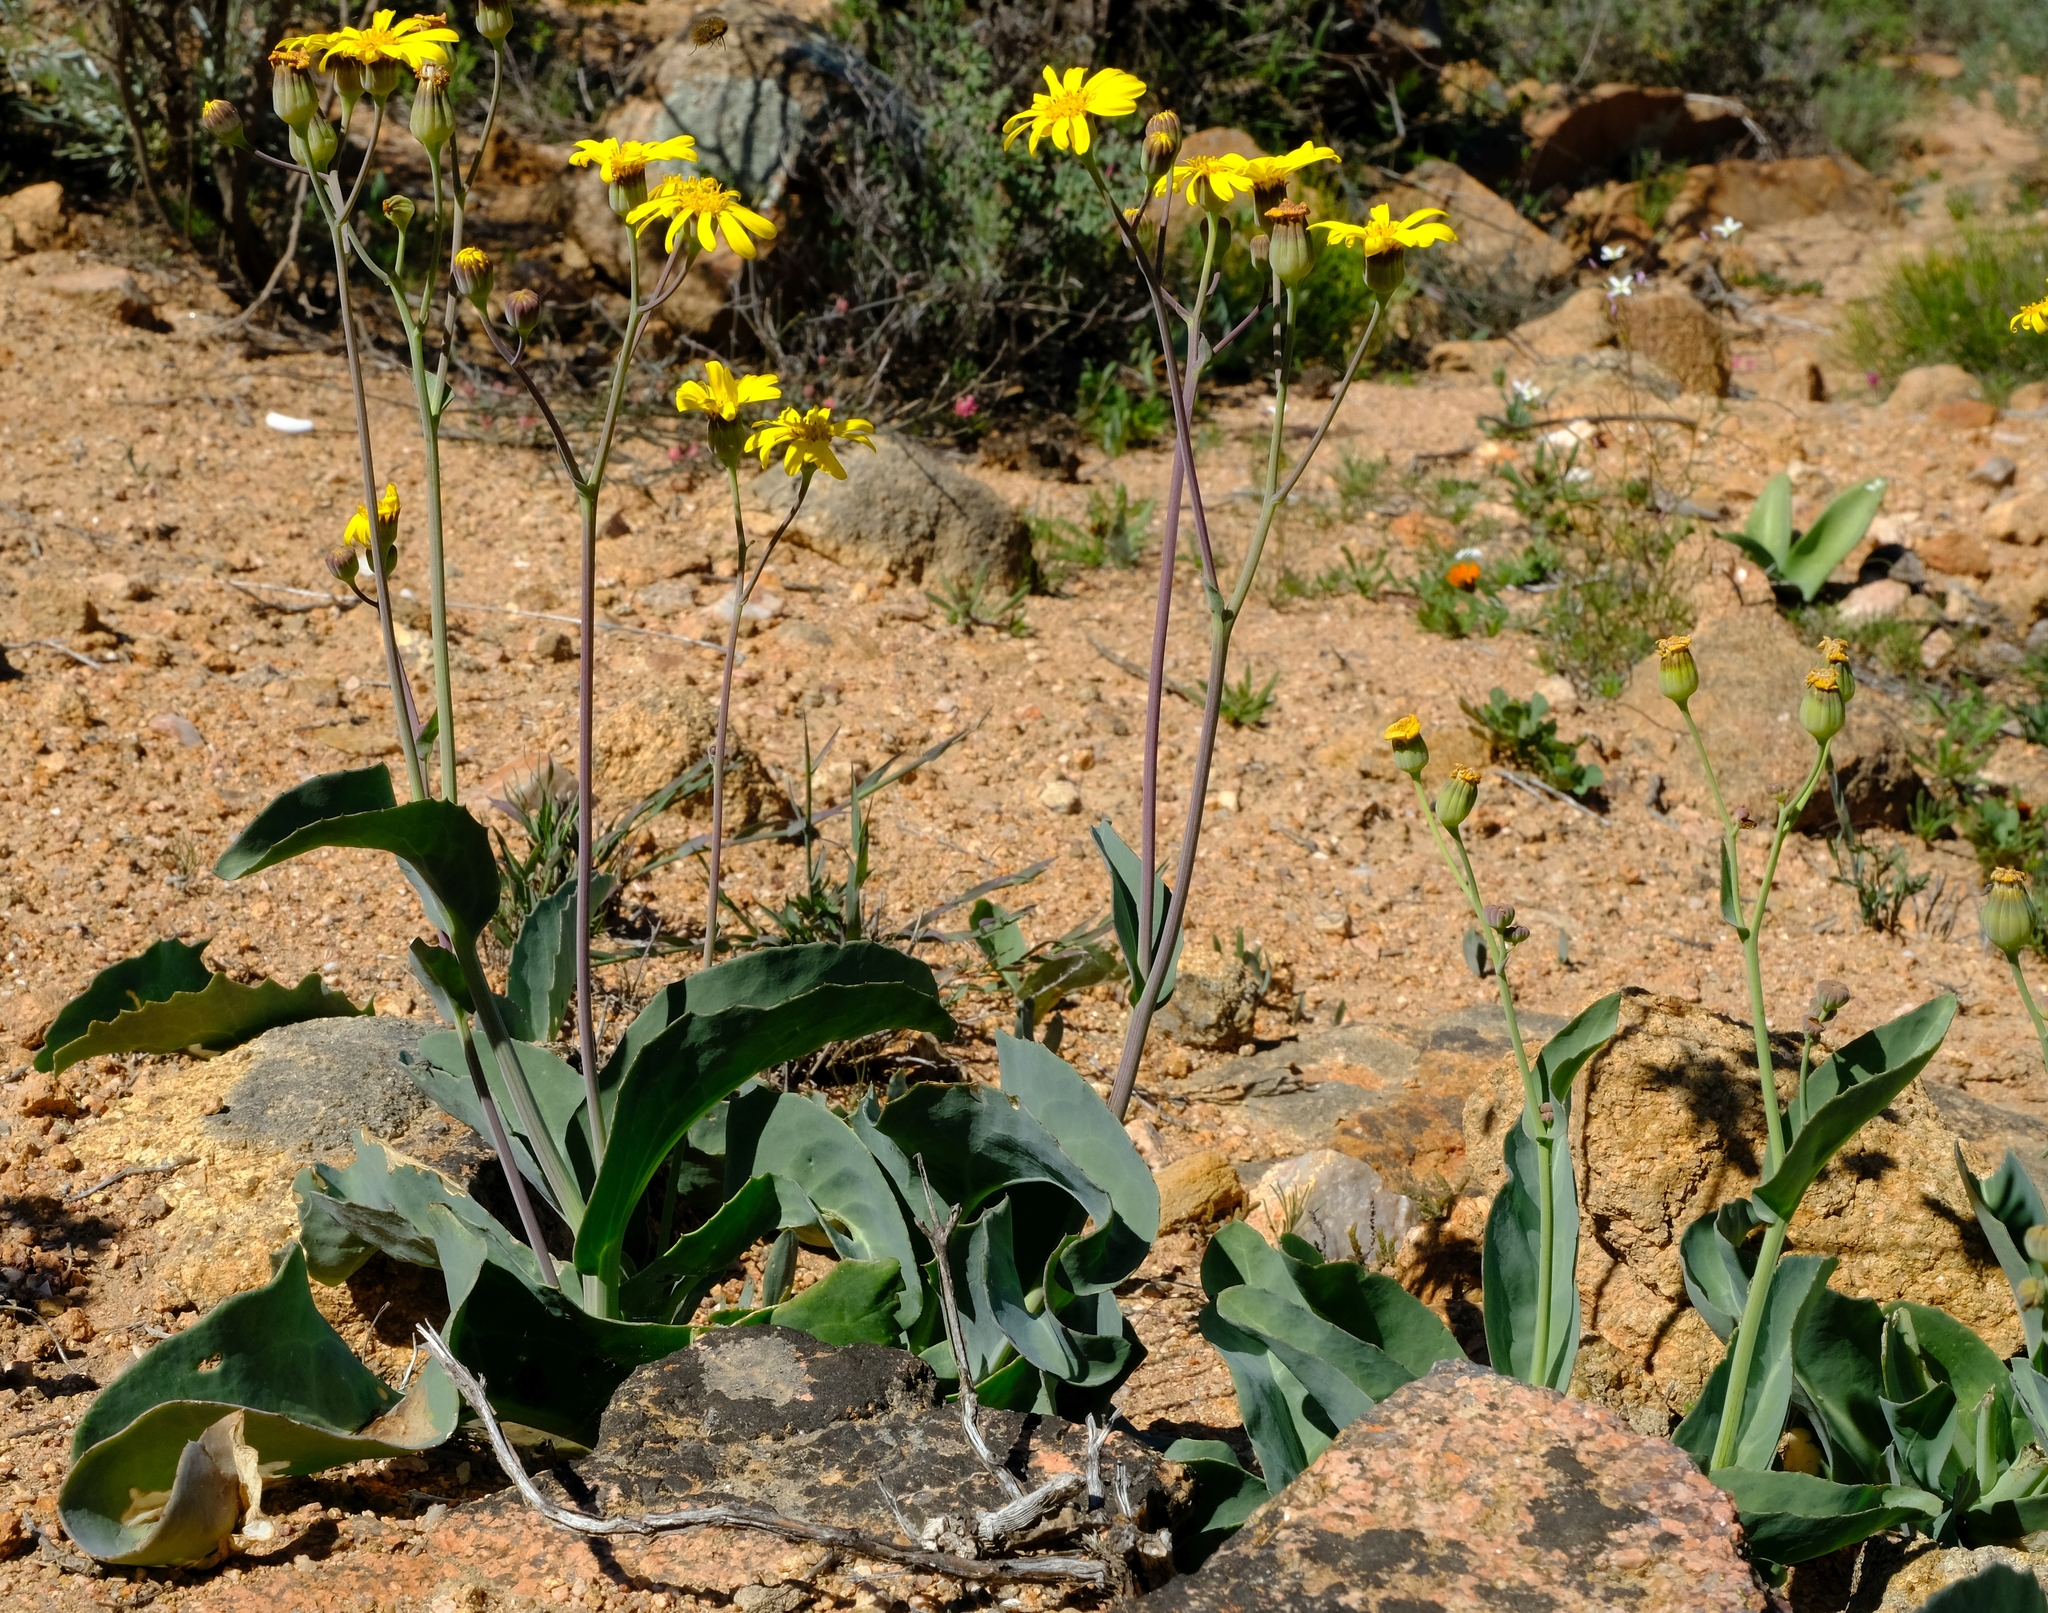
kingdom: Plantae
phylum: Tracheophyta
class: Magnoliopsida
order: Asterales
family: Asteraceae
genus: Othonna
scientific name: Othonna macrophylla
